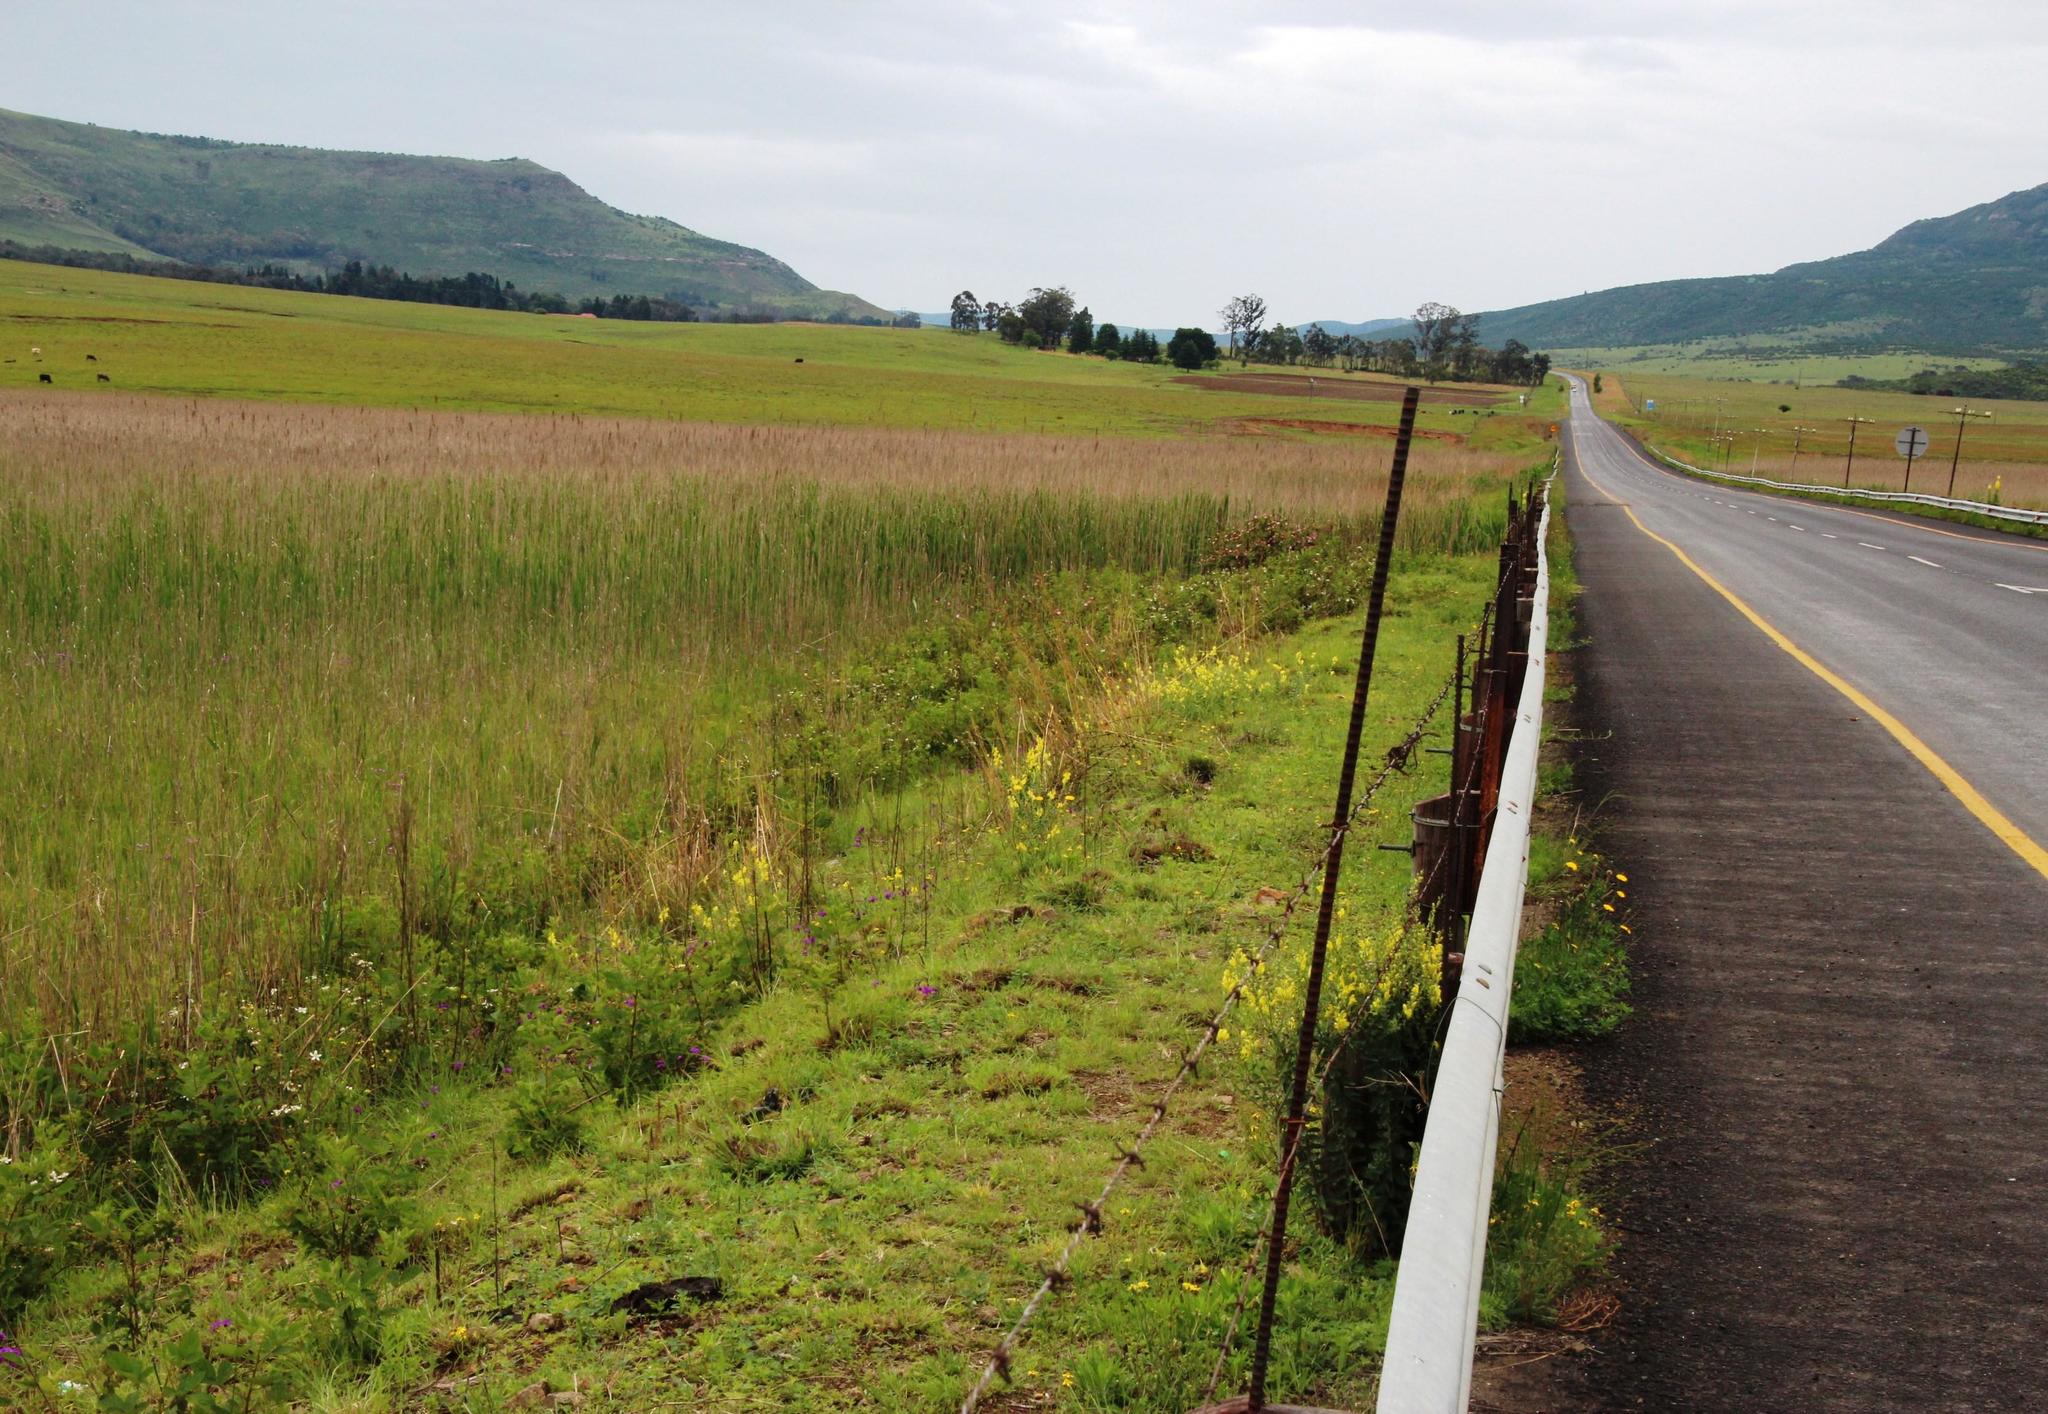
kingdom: Plantae
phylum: Tracheophyta
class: Magnoliopsida
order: Lamiales
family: Verbenaceae
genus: Verbena
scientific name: Verbena rigida
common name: Slender vervain
